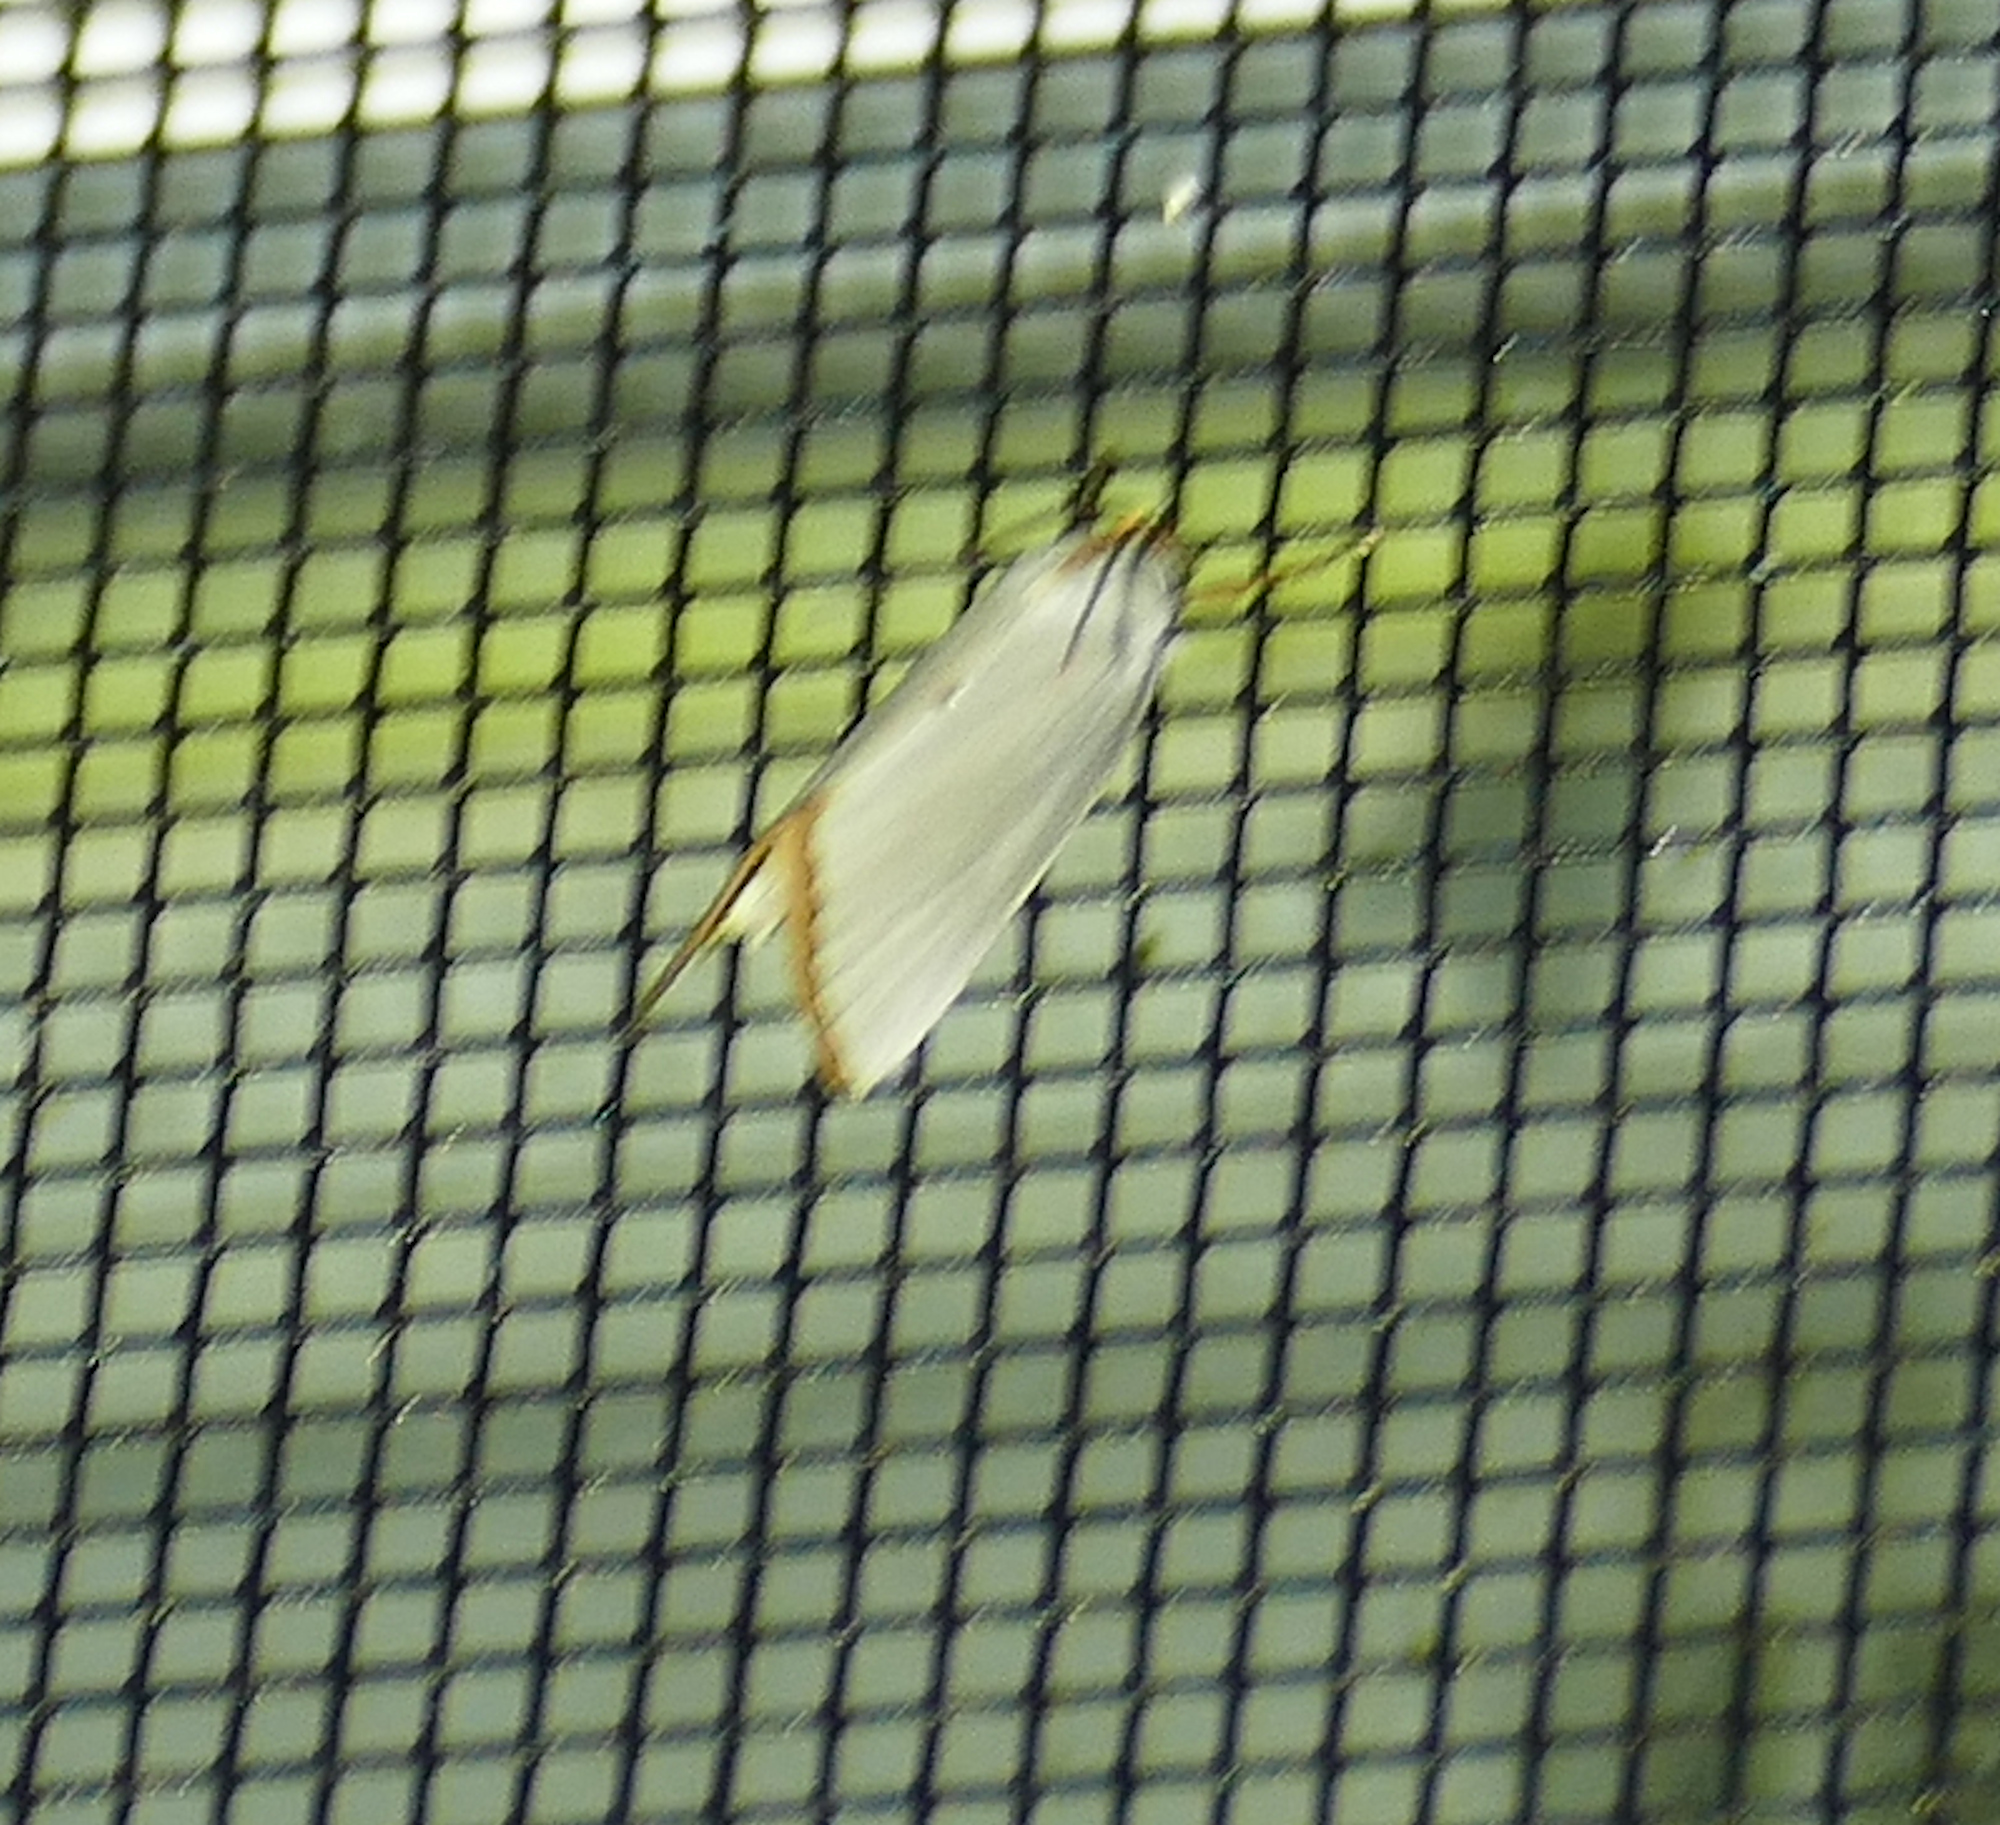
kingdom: Animalia
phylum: Arthropoda
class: Insecta
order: Lepidoptera
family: Crambidae
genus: Argyria
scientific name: Argyria nivalis
